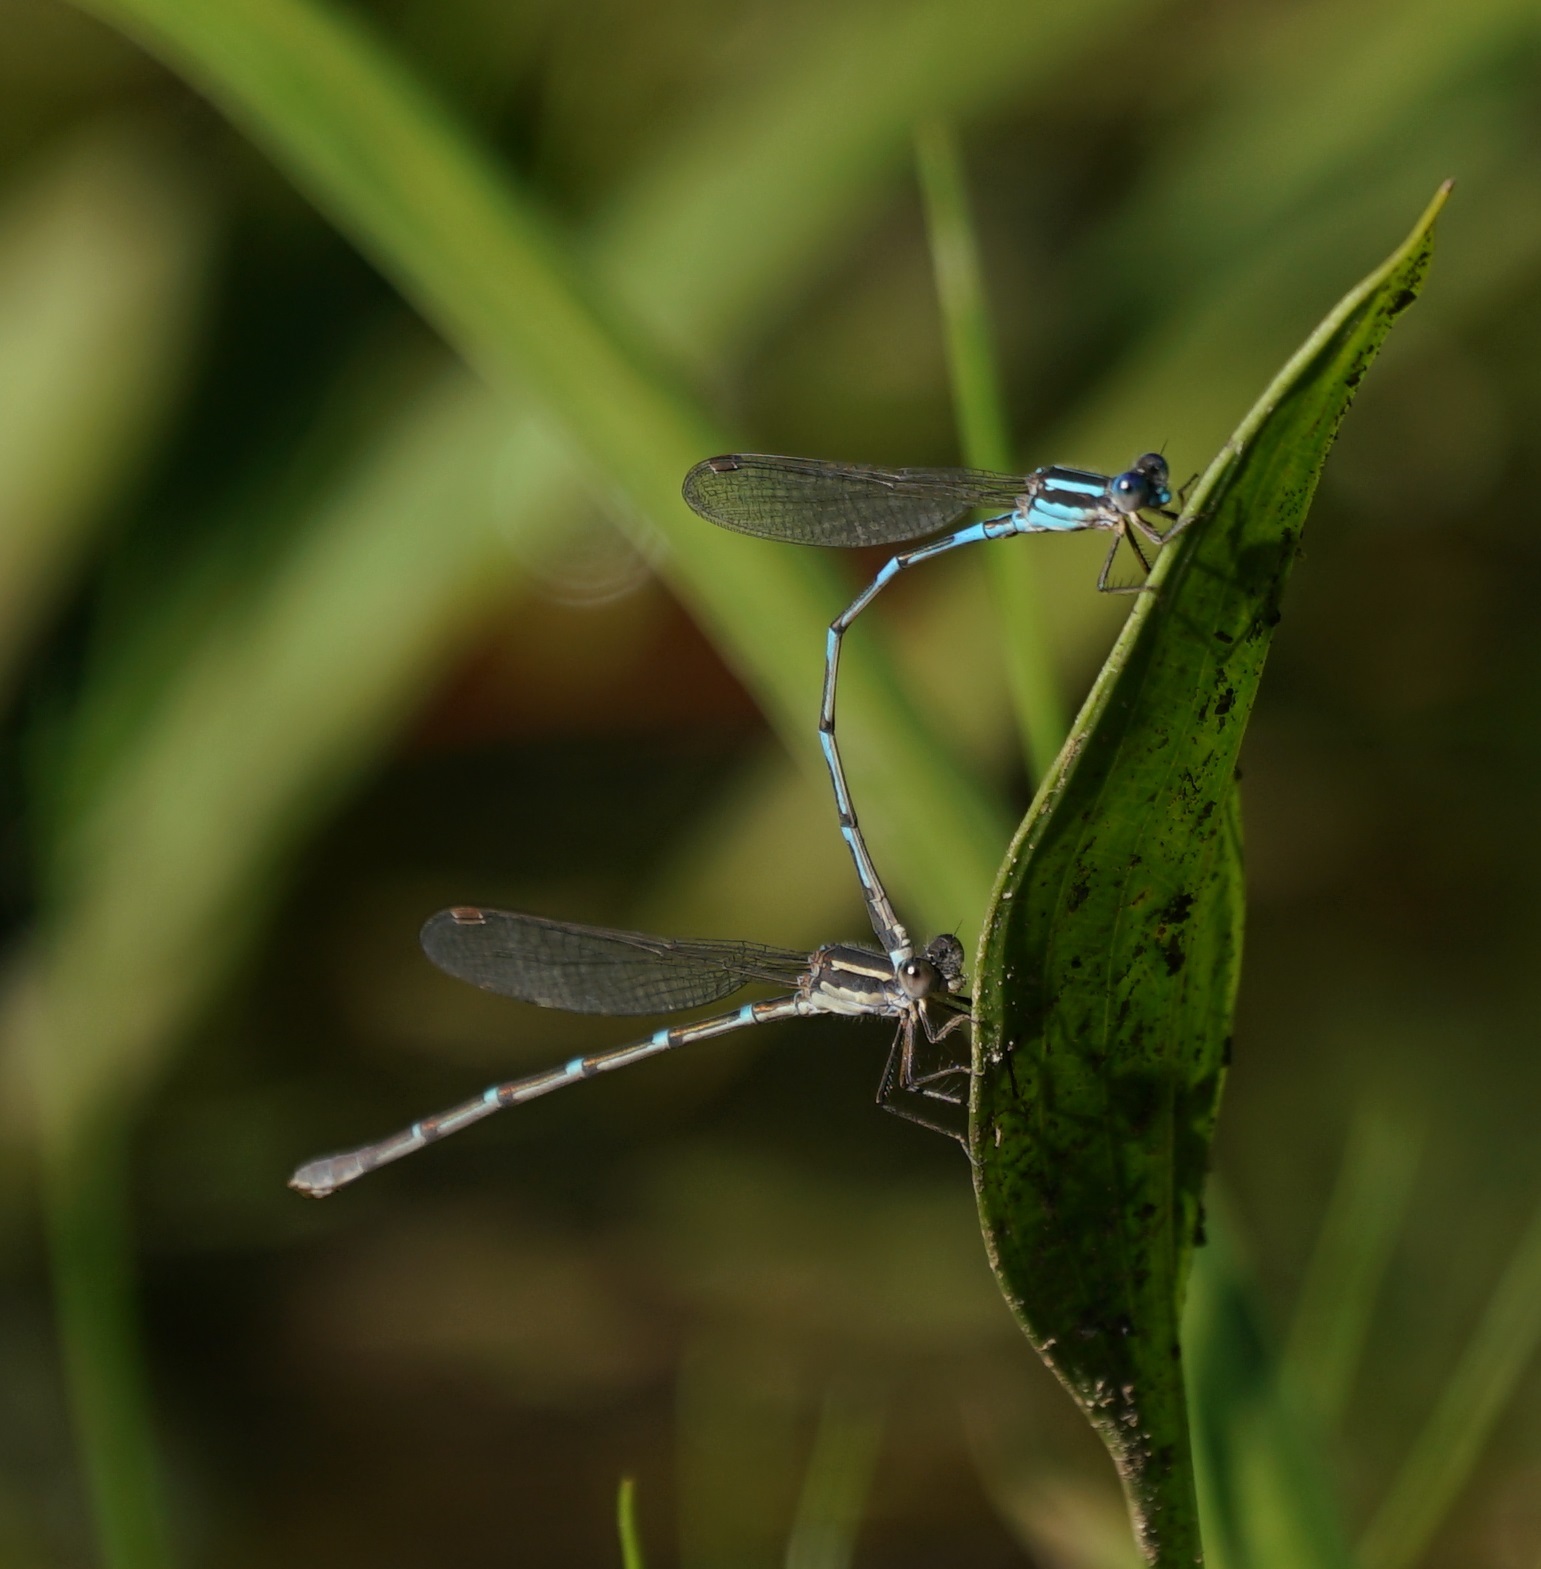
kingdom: Animalia
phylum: Arthropoda
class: Insecta
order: Odonata
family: Lestidae
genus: Austrolestes
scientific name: Austrolestes leda
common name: Wandering ringtail
